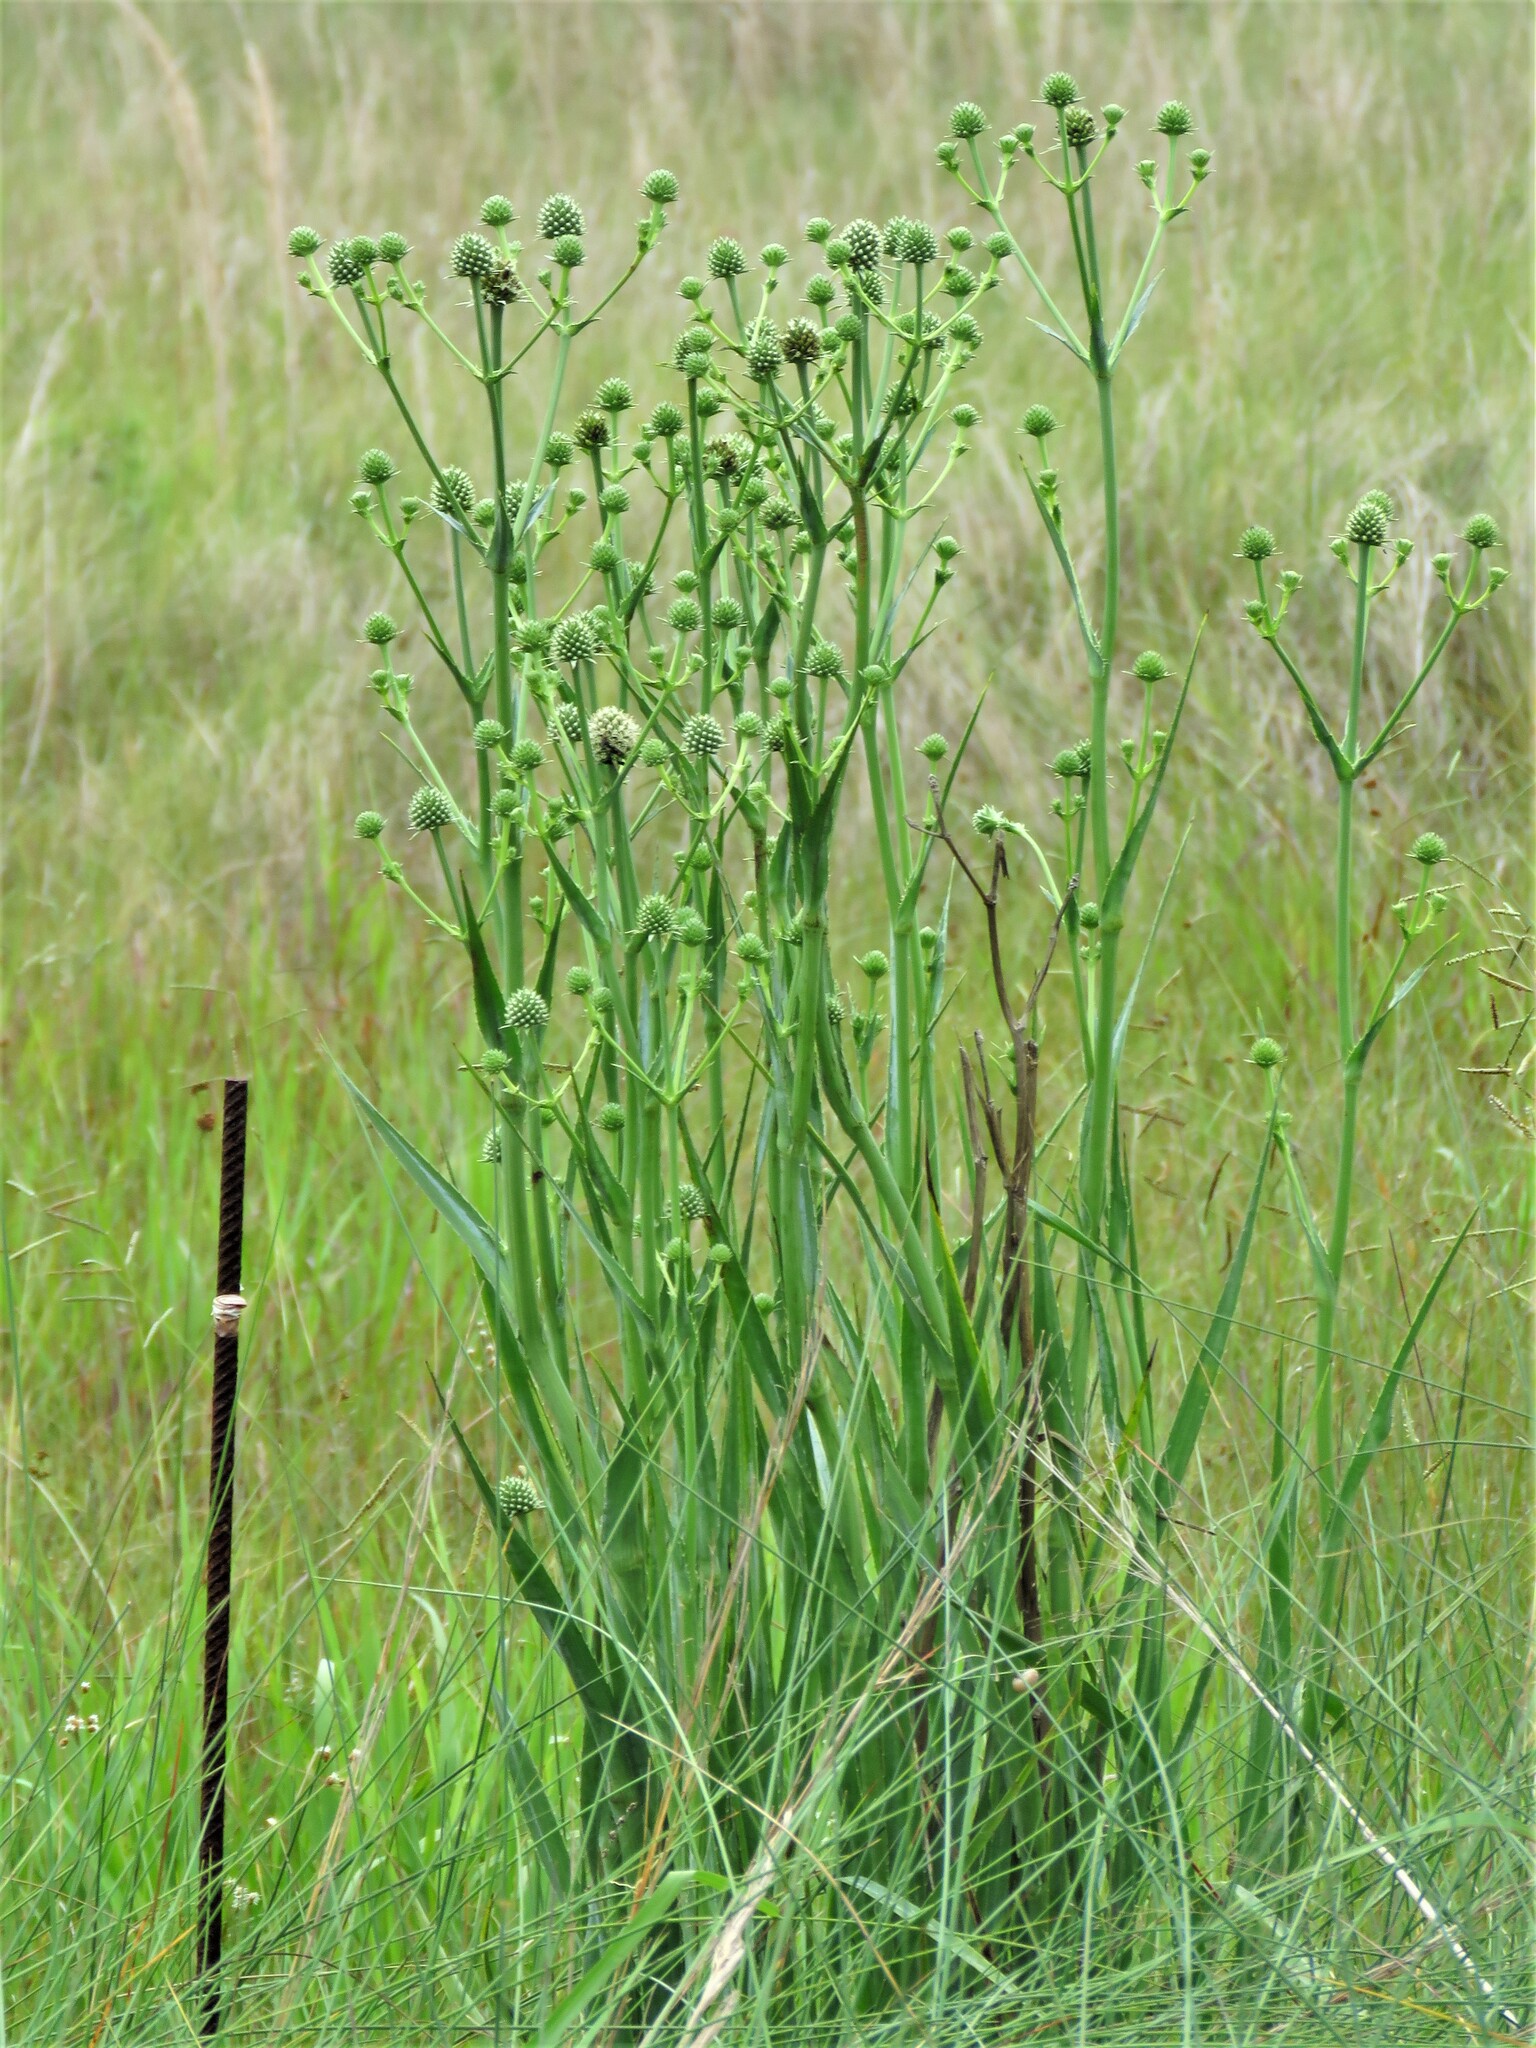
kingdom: Plantae
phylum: Tracheophyta
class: Magnoliopsida
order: Apiales
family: Apiaceae
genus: Eryngium
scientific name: Eryngium yuccifolium
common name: Button eryngo
